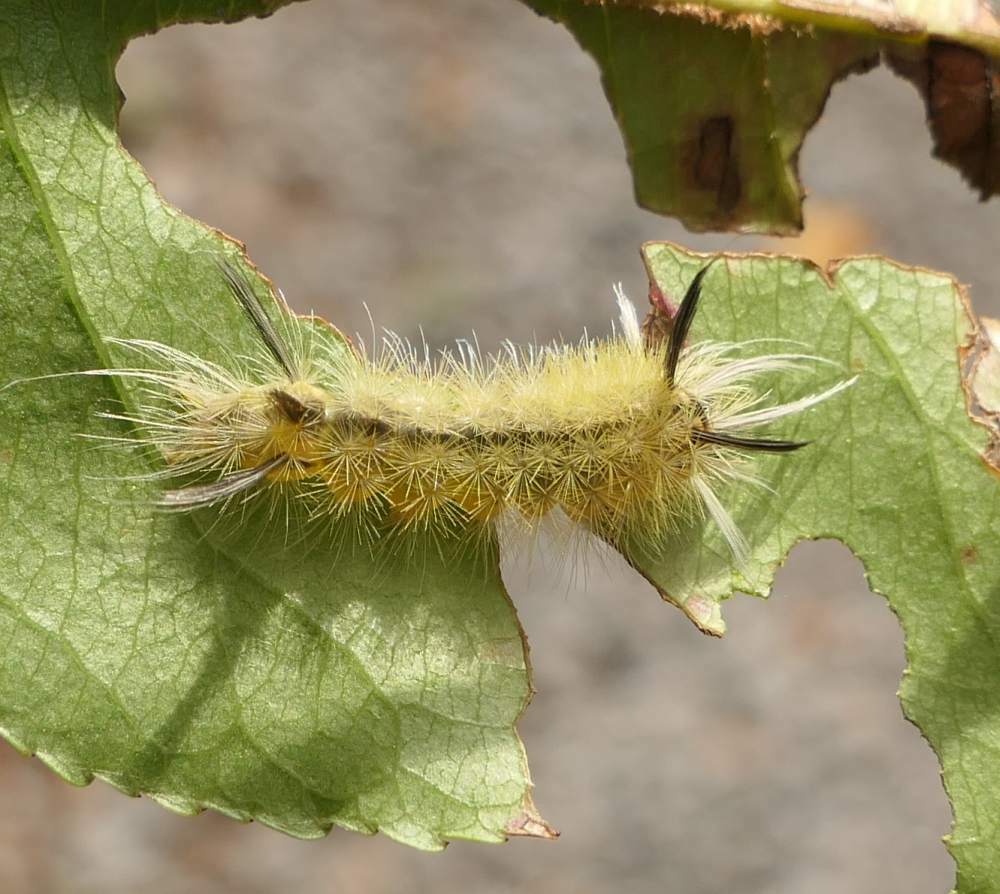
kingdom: Animalia
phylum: Arthropoda
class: Insecta
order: Lepidoptera
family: Erebidae
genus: Halysidota
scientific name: Halysidota tessellaris
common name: Banded tussock moth
